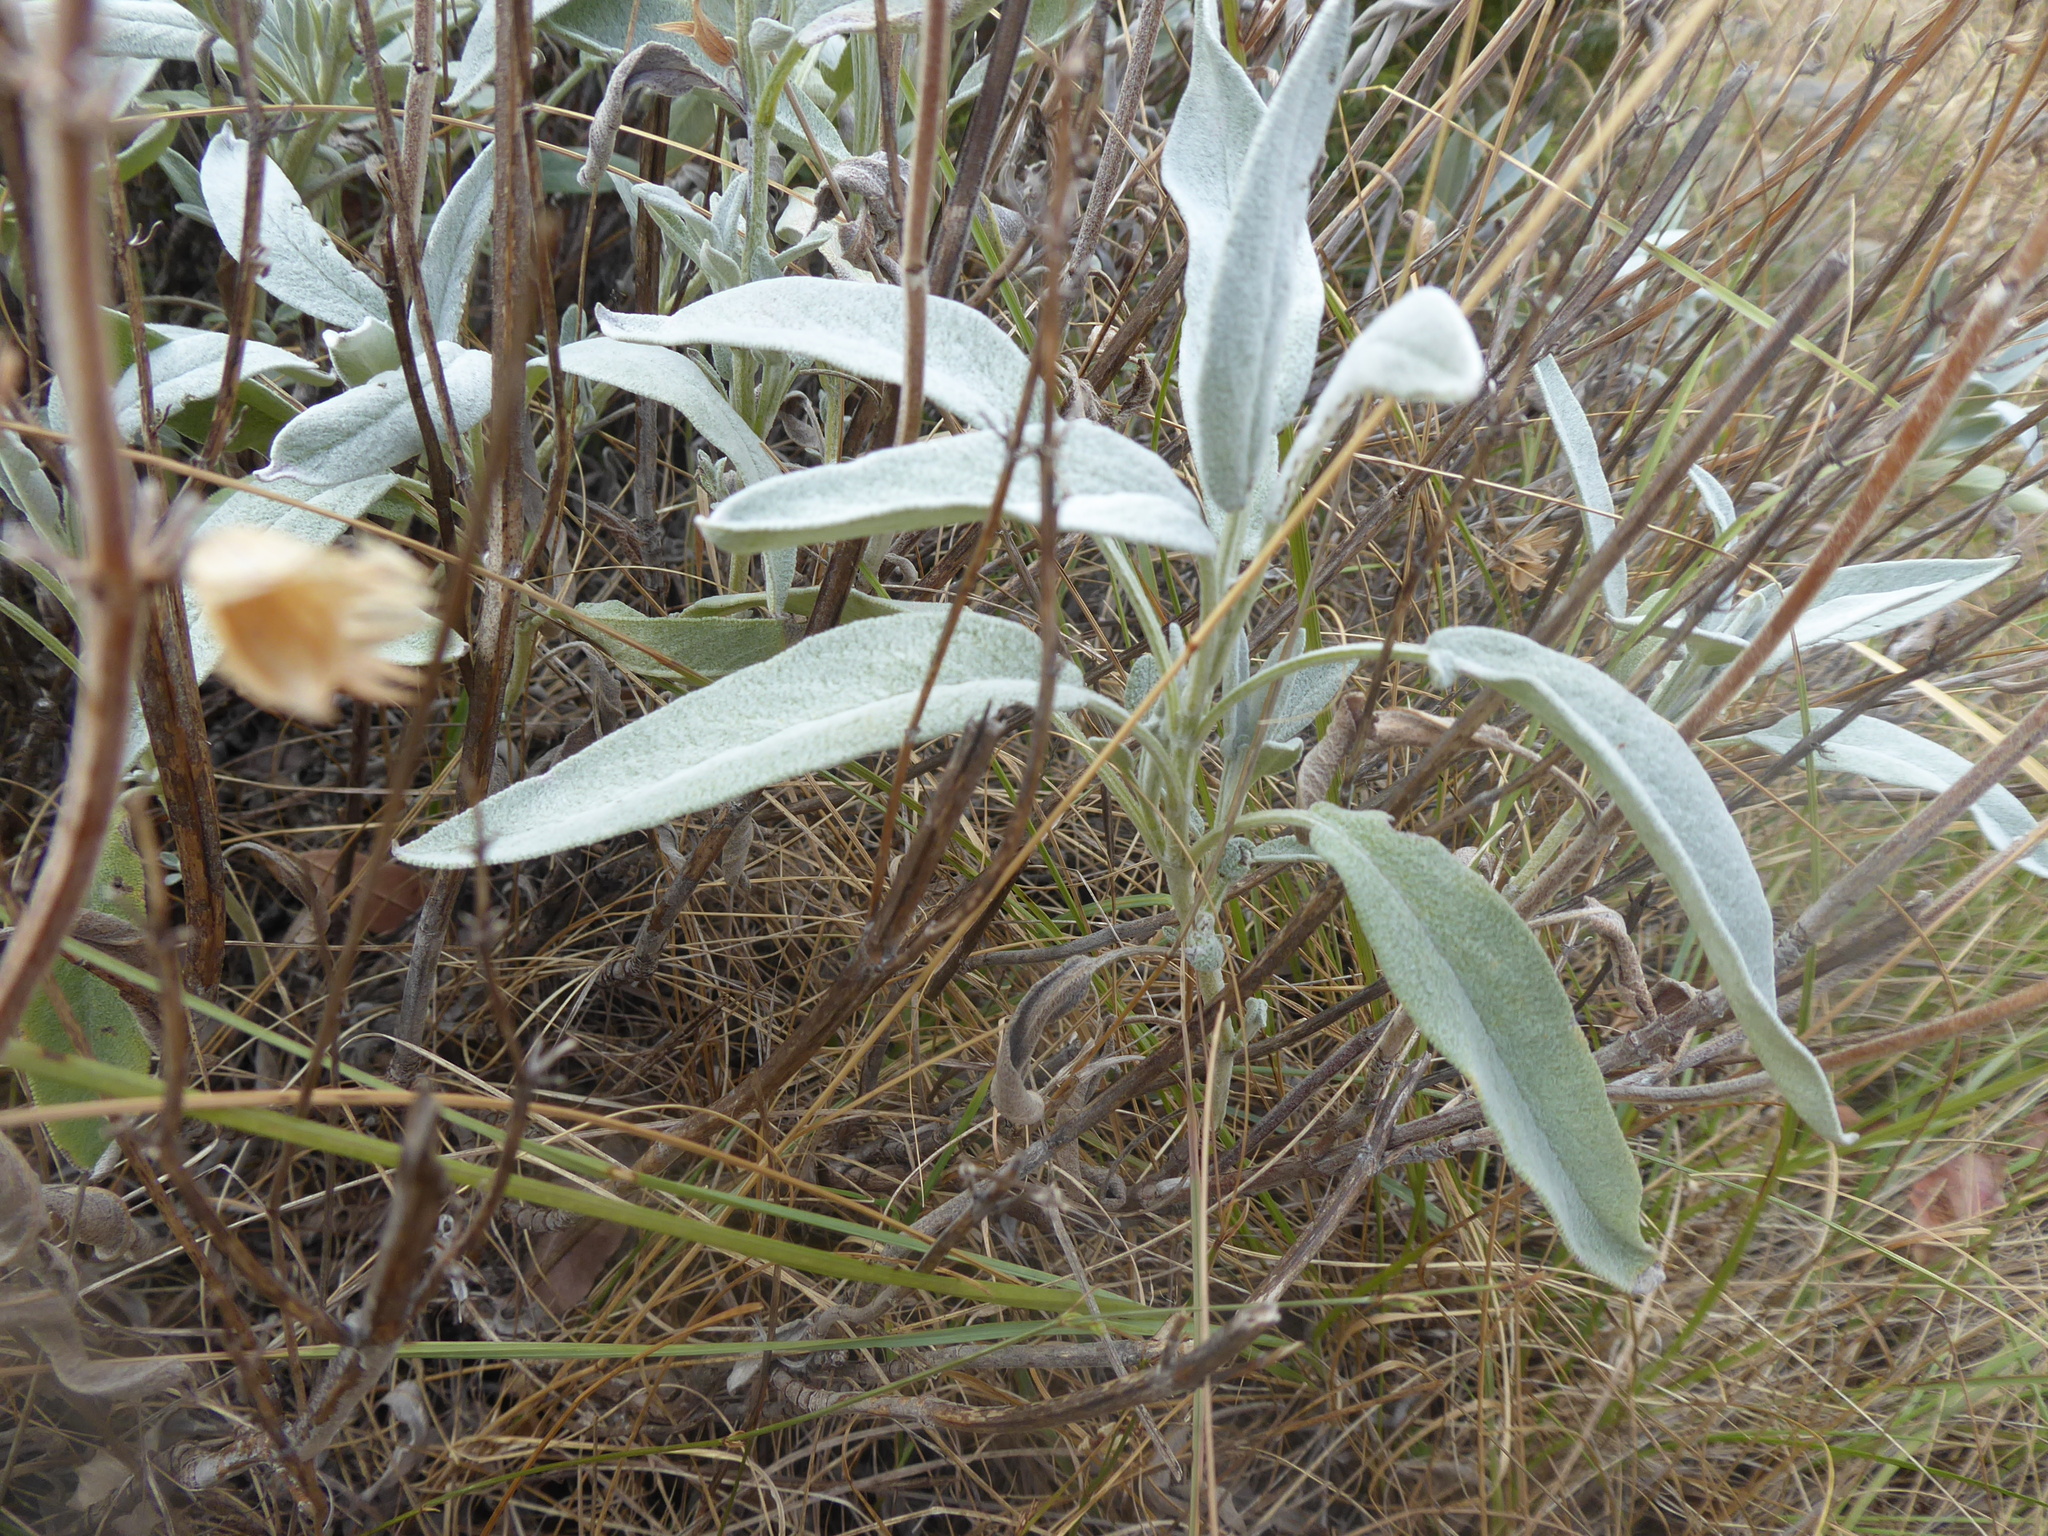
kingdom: Plantae
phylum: Tracheophyta
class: Magnoliopsida
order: Lamiales
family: Lamiaceae
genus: Salvia
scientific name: Salvia officinalis
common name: Sage
